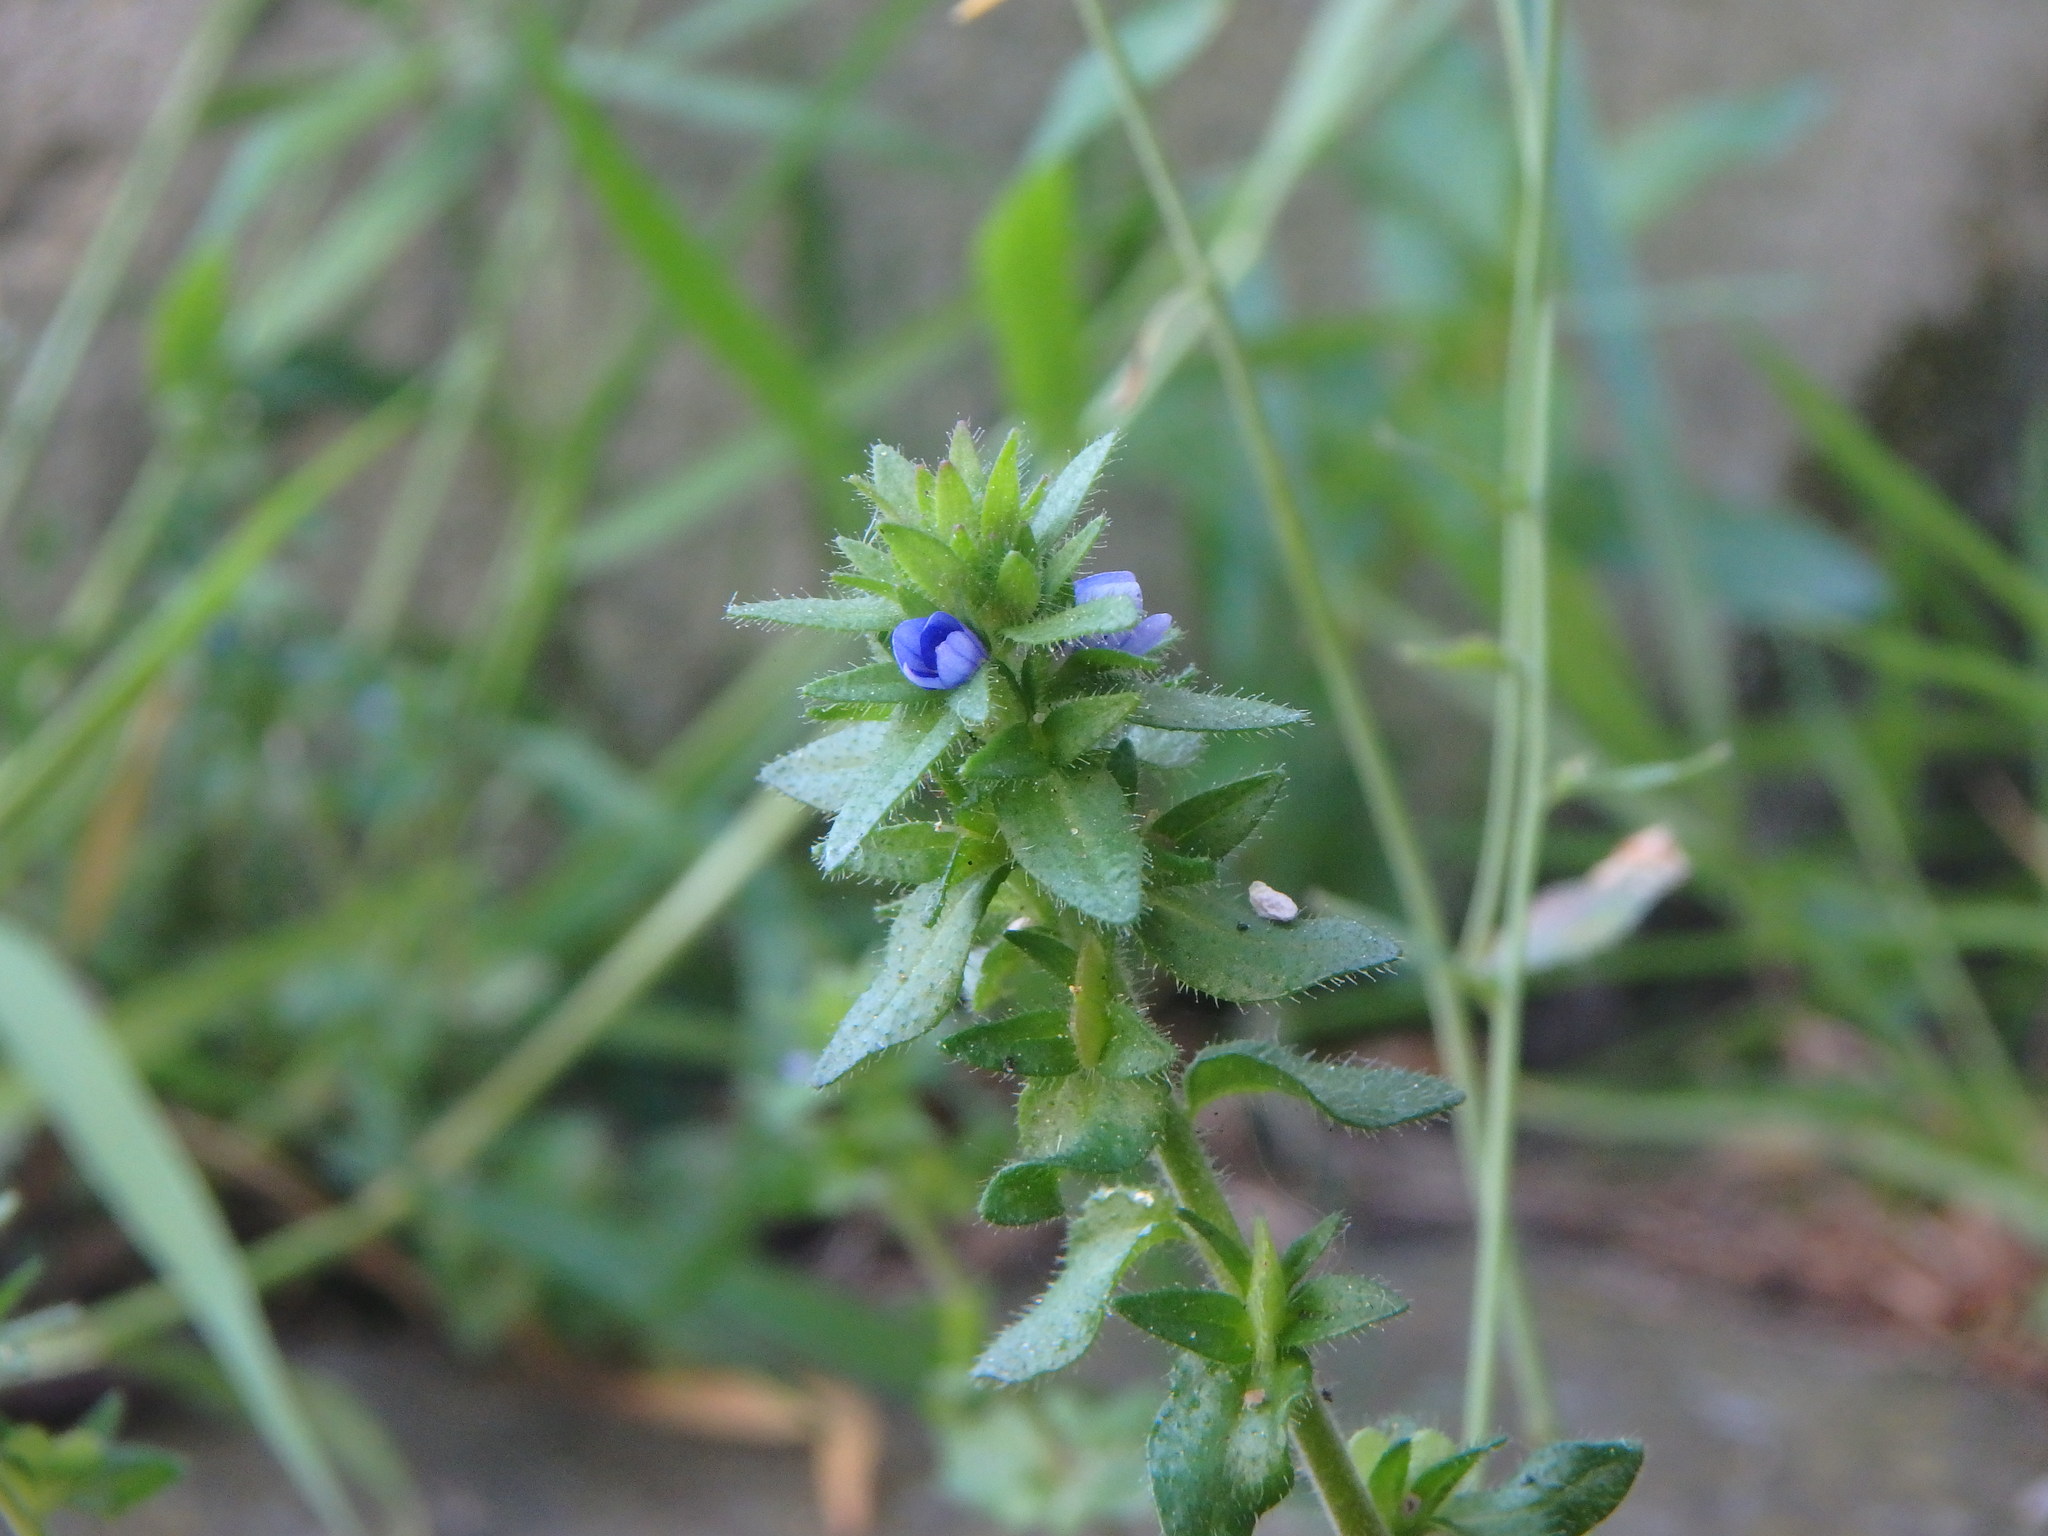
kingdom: Plantae
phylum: Tracheophyta
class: Magnoliopsida
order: Lamiales
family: Plantaginaceae
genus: Veronica
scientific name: Veronica arvensis
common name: Corn speedwell
